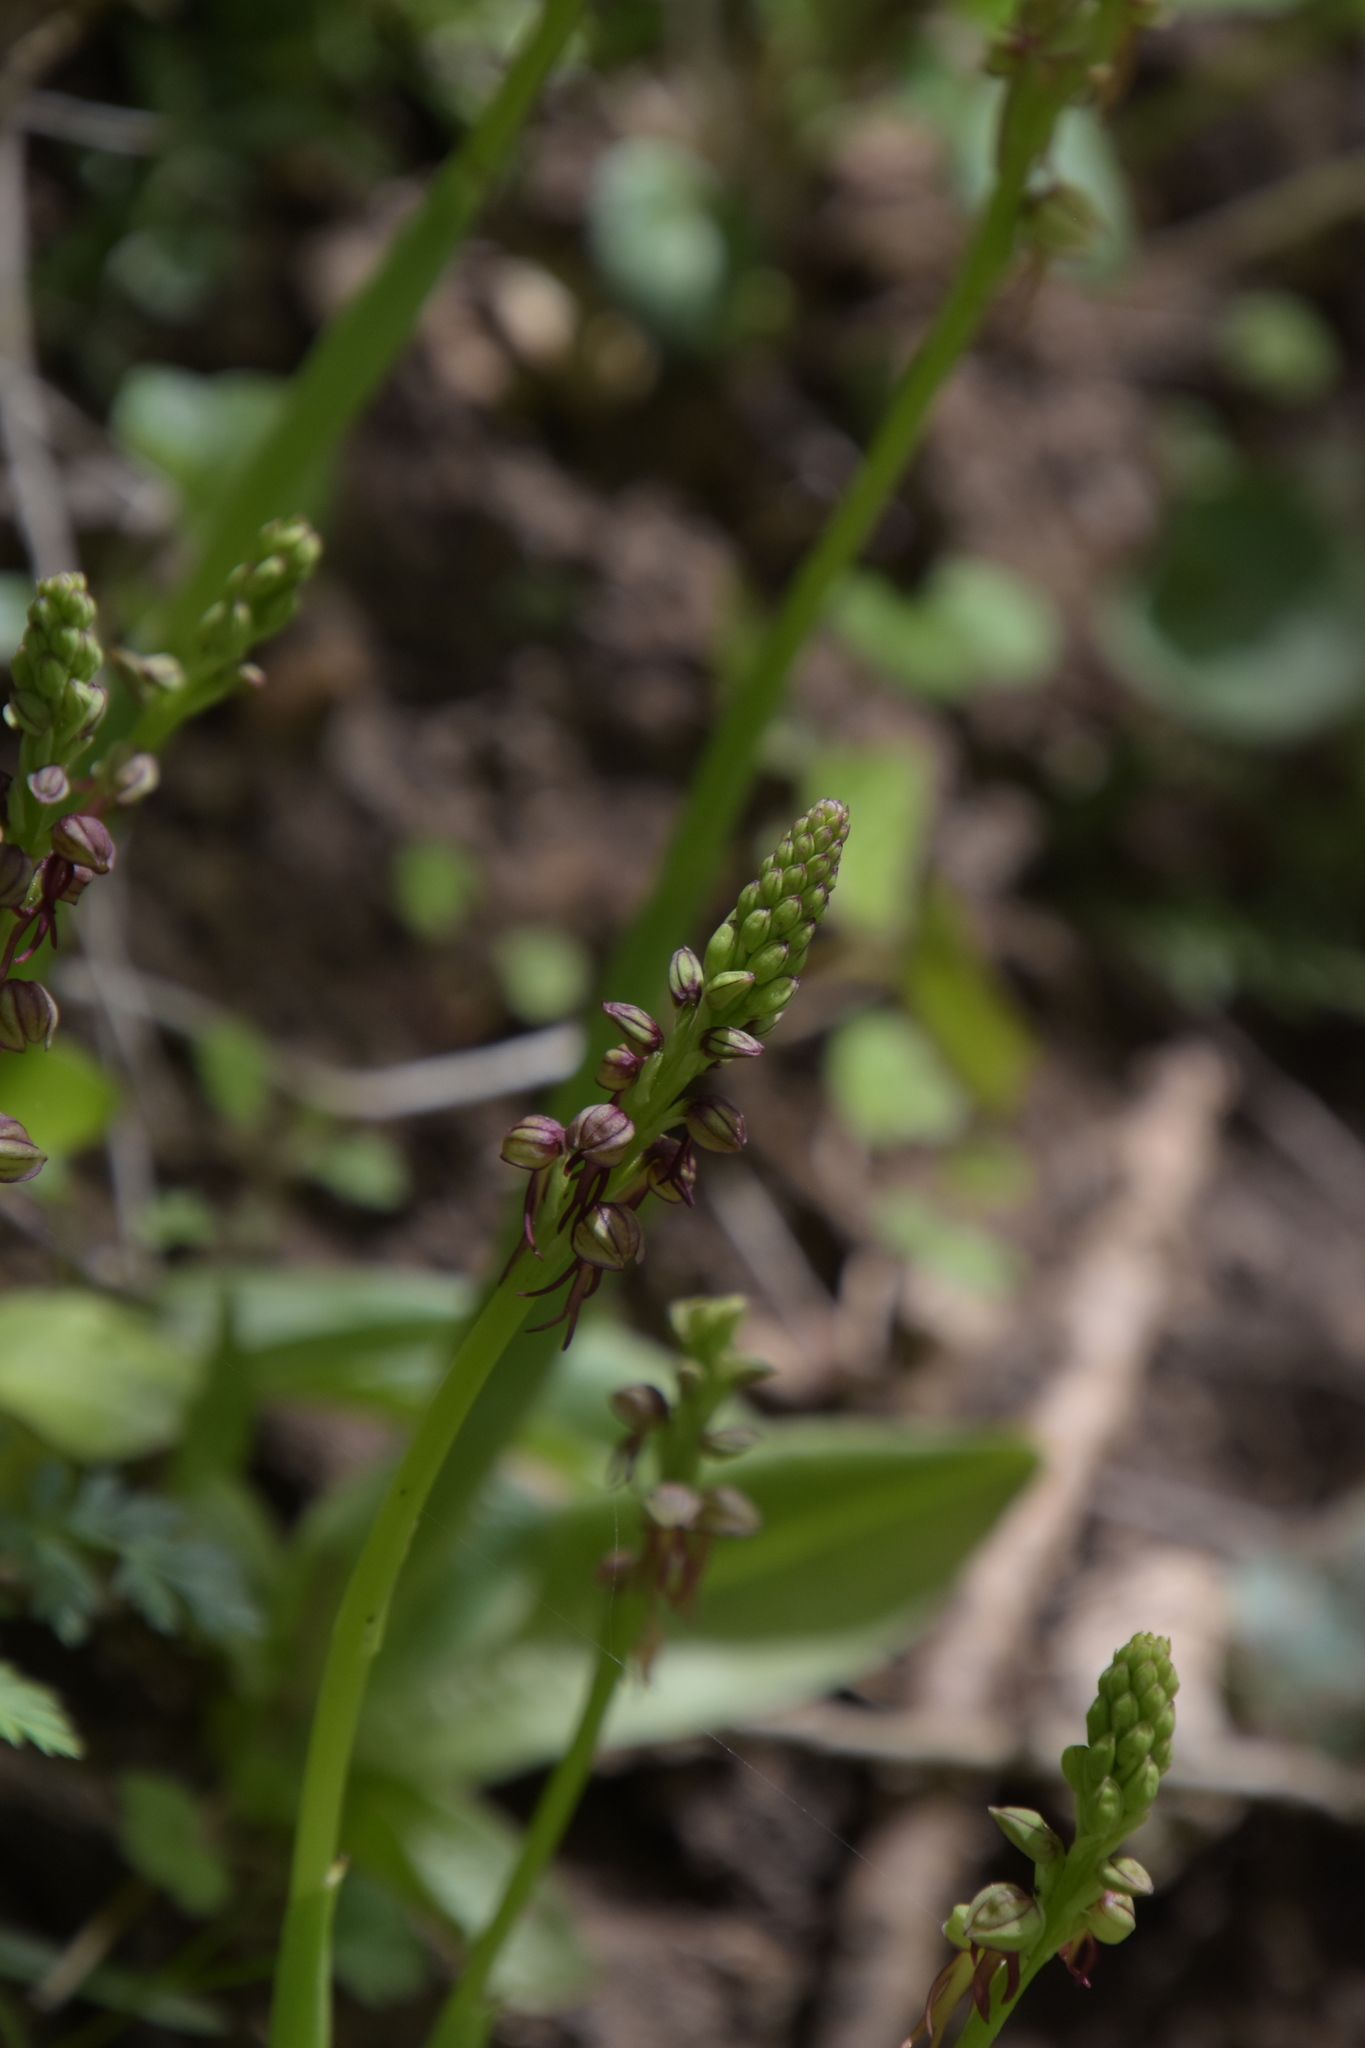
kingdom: Plantae
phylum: Tracheophyta
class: Liliopsida
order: Asparagales
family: Orchidaceae
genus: Orchis
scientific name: Orchis anthropophora
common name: Man orchid
